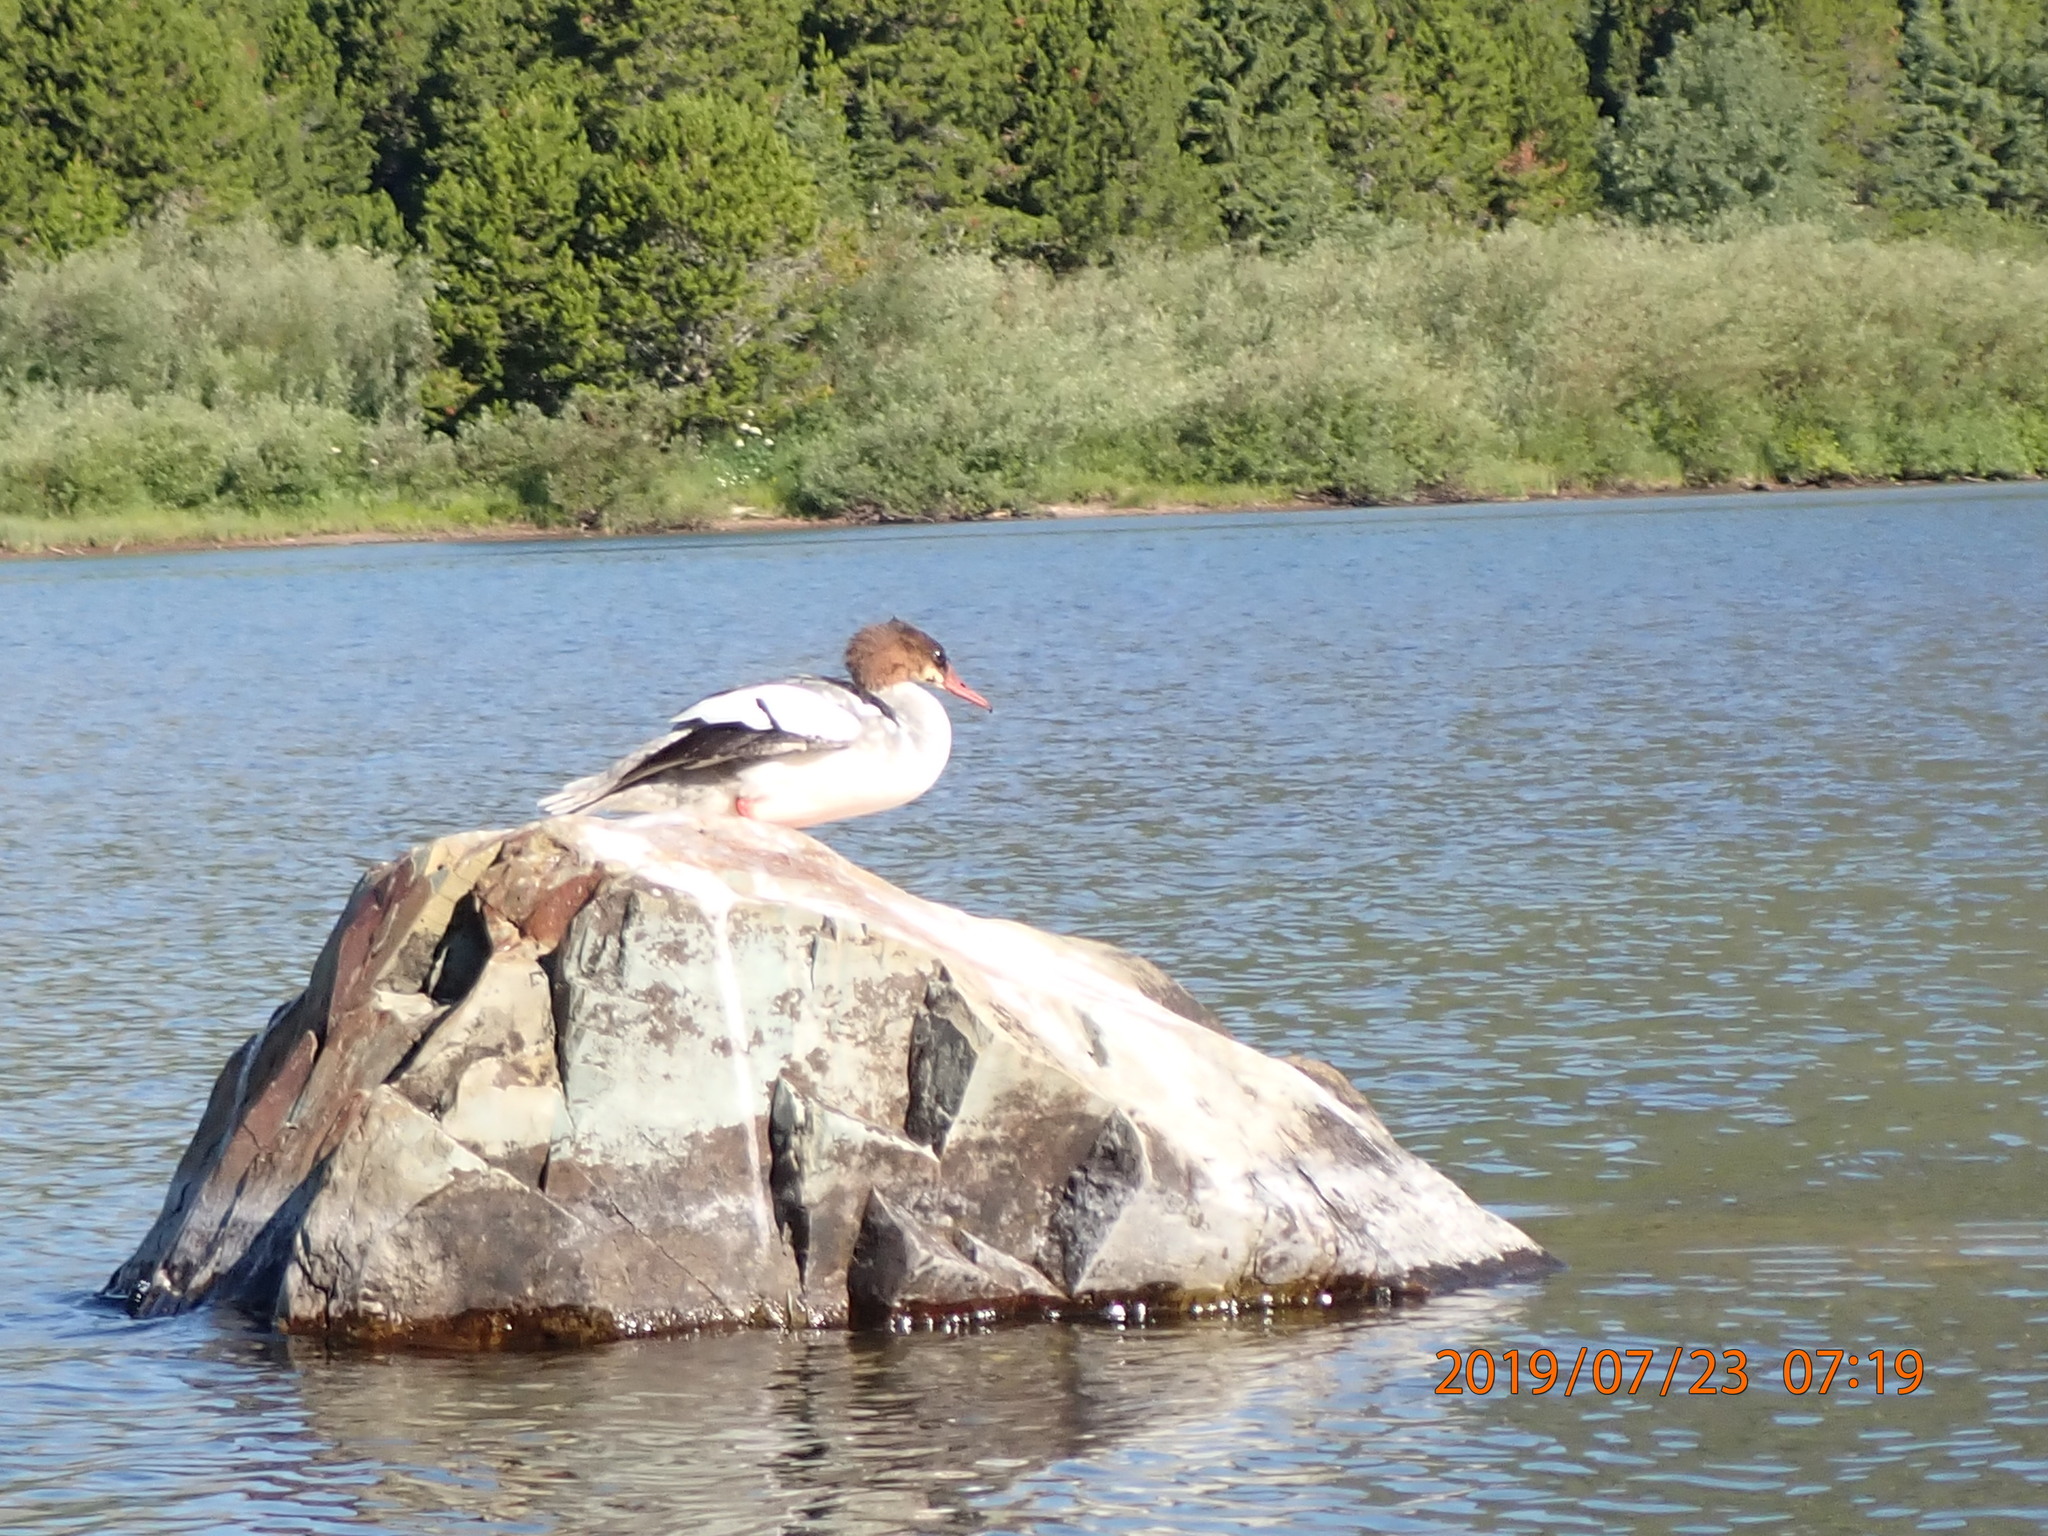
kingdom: Animalia
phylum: Chordata
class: Aves
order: Anseriformes
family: Anatidae
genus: Mergus
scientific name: Mergus merganser
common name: Common merganser
